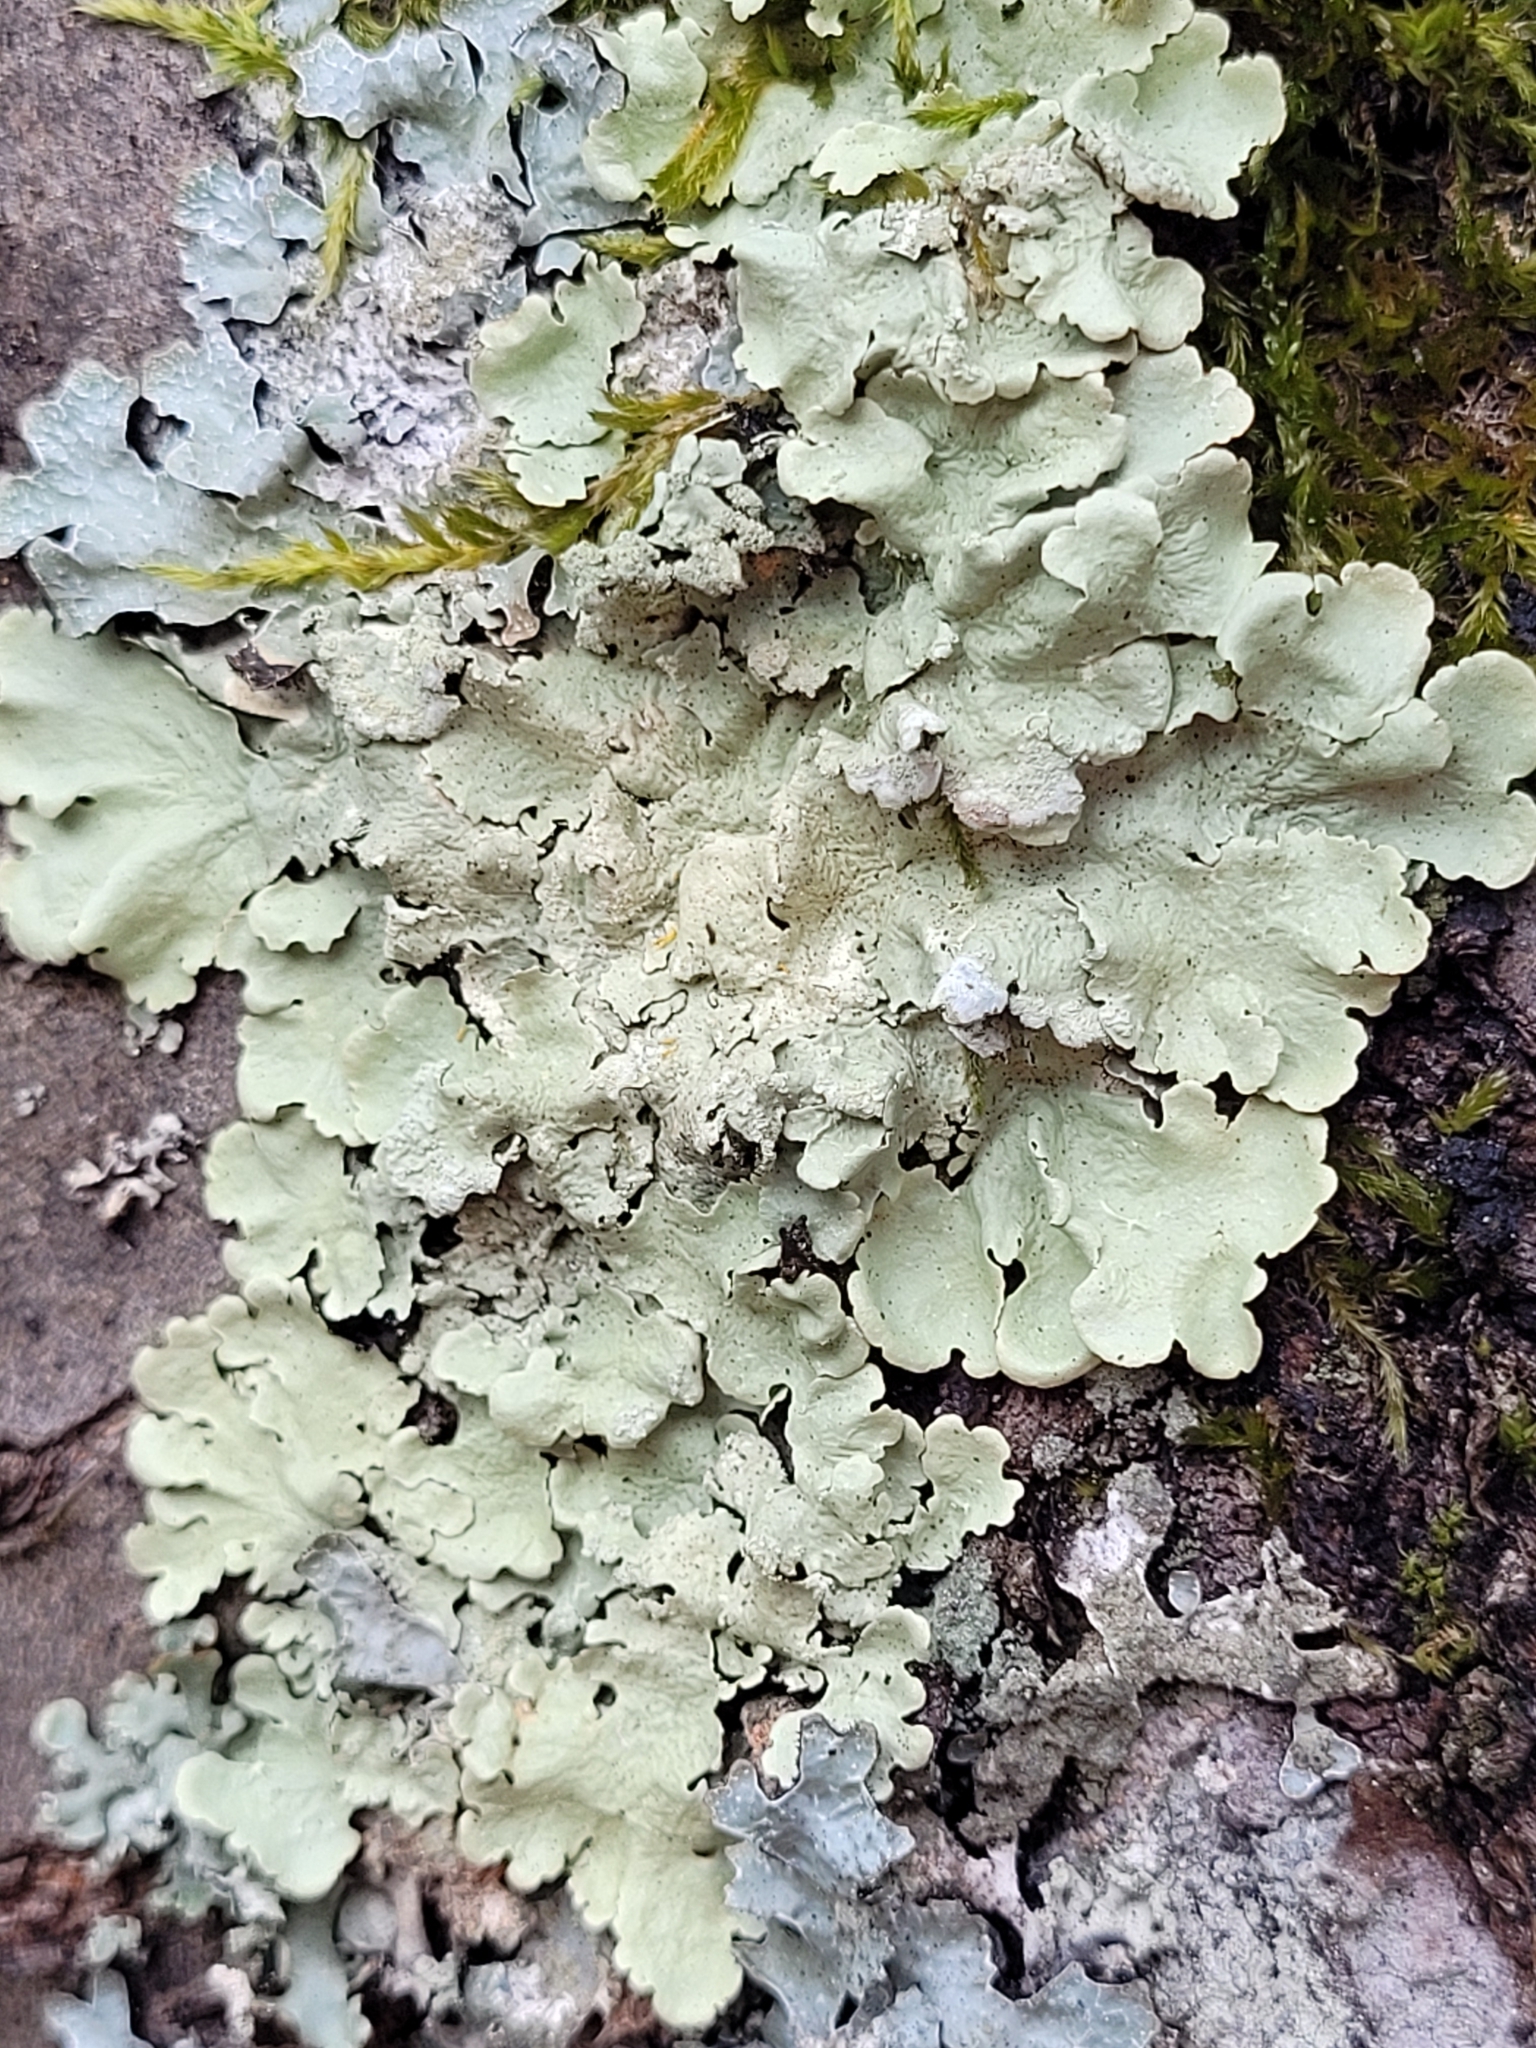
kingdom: Fungi
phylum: Ascomycota
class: Lecanoromycetes
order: Lecanorales
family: Parmeliaceae
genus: Flavoparmelia
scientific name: Flavoparmelia caperata
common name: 40-mile per hour lichen
